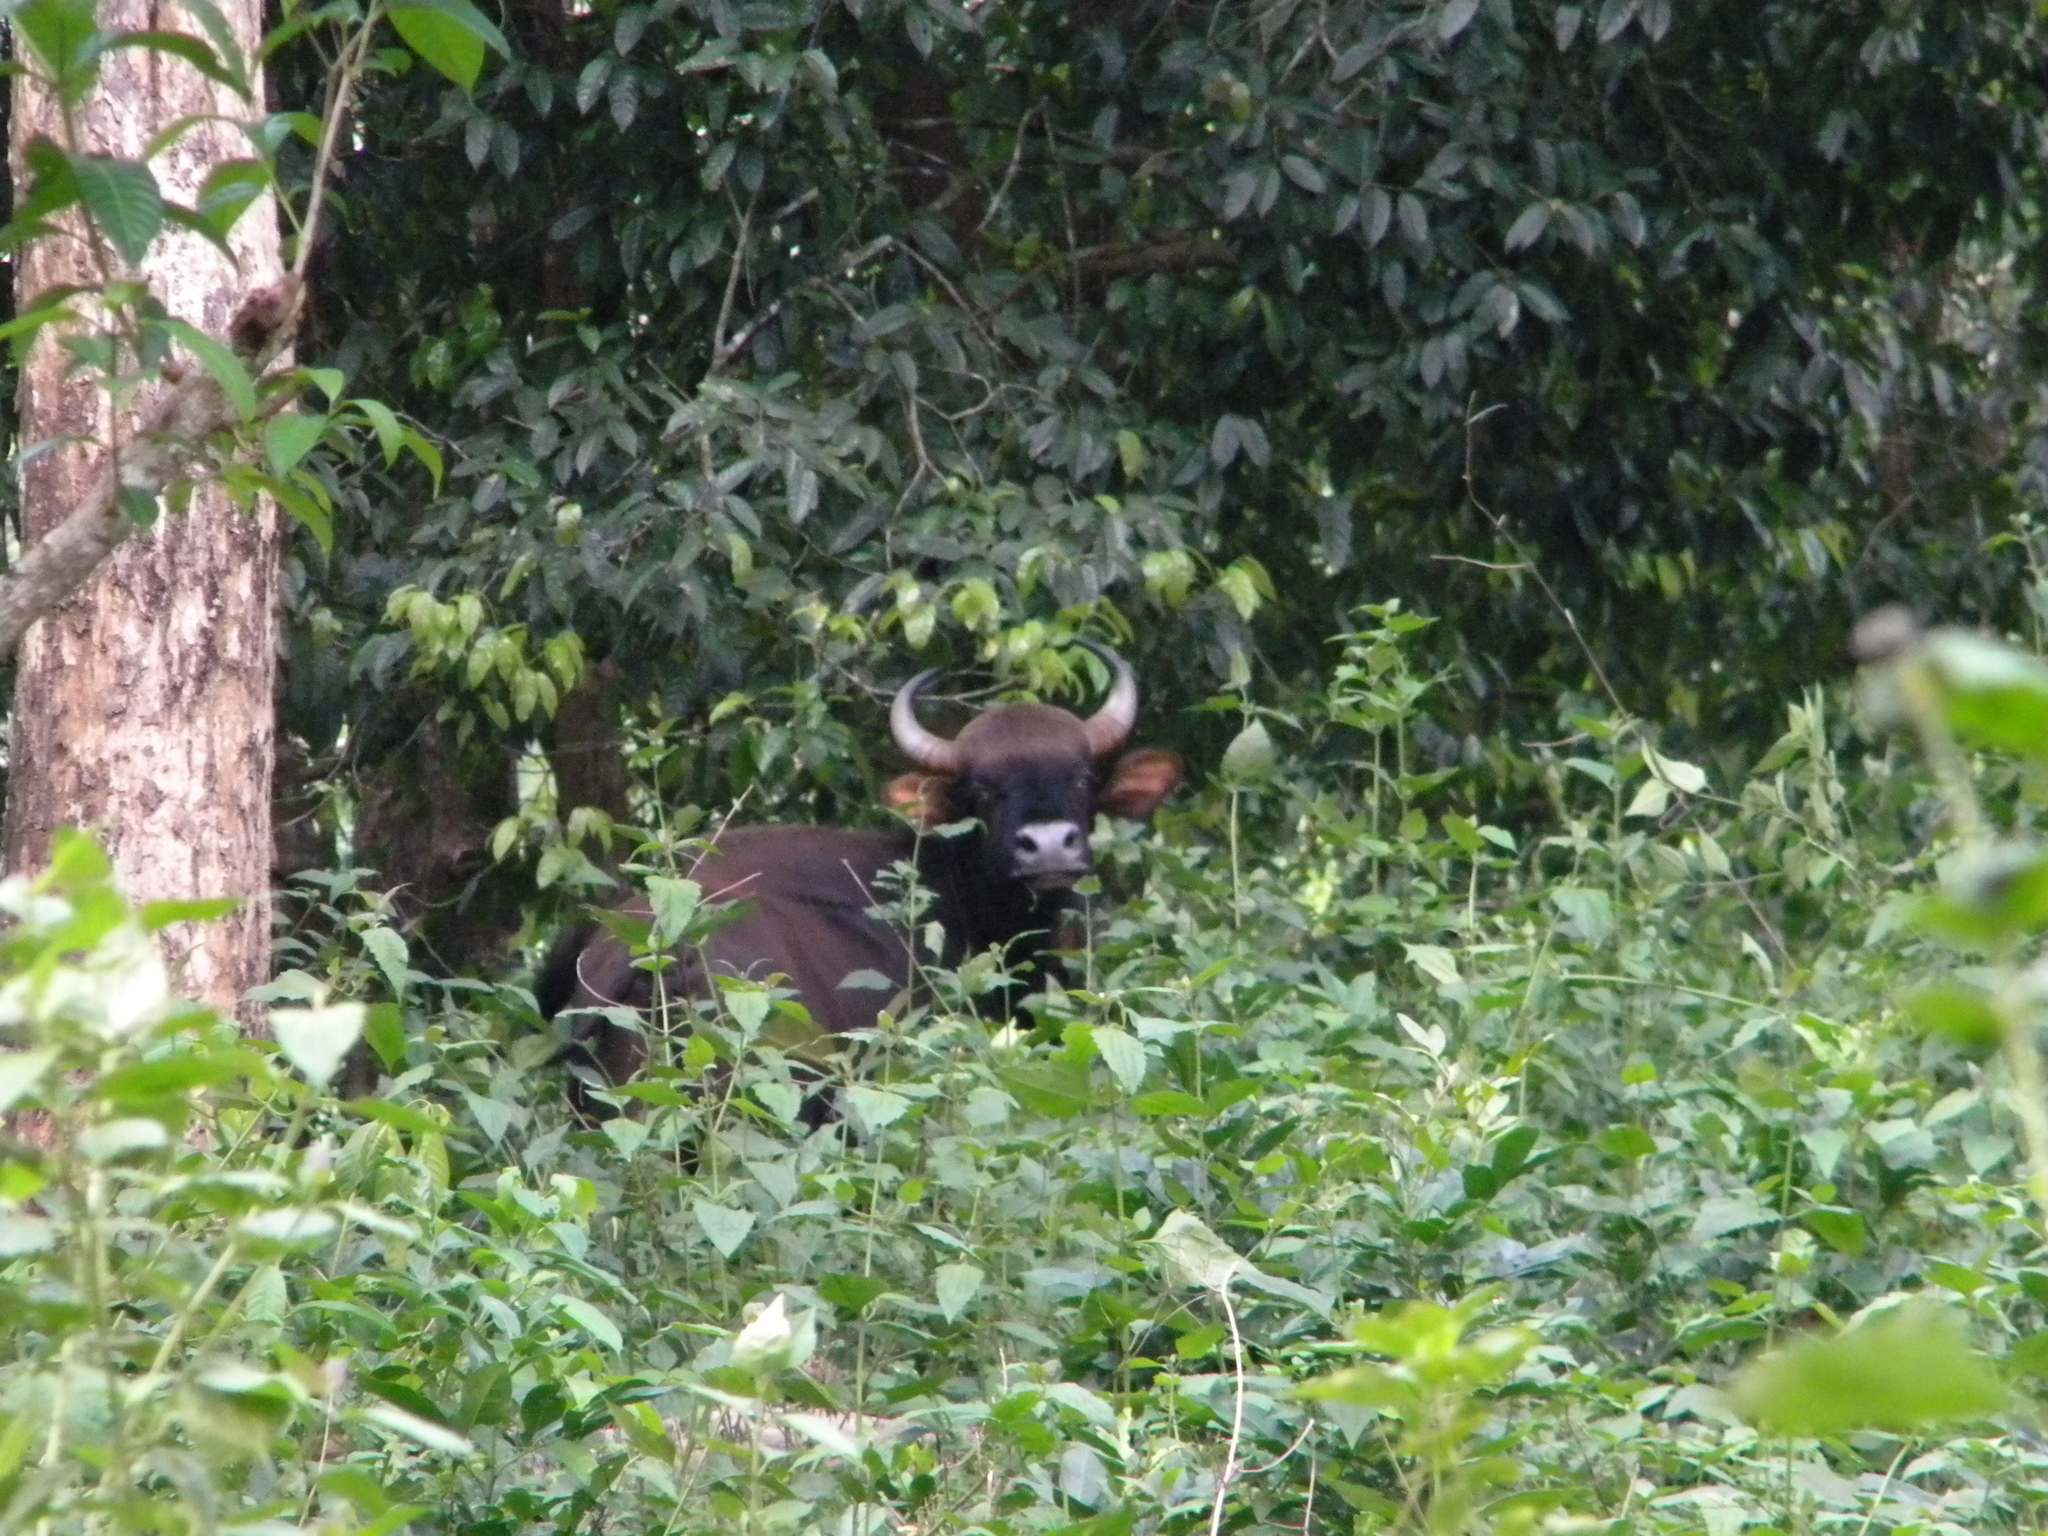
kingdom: Animalia
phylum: Chordata
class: Mammalia
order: Artiodactyla
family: Bovidae
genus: Bos
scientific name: Bos frontalis
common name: Gaur
